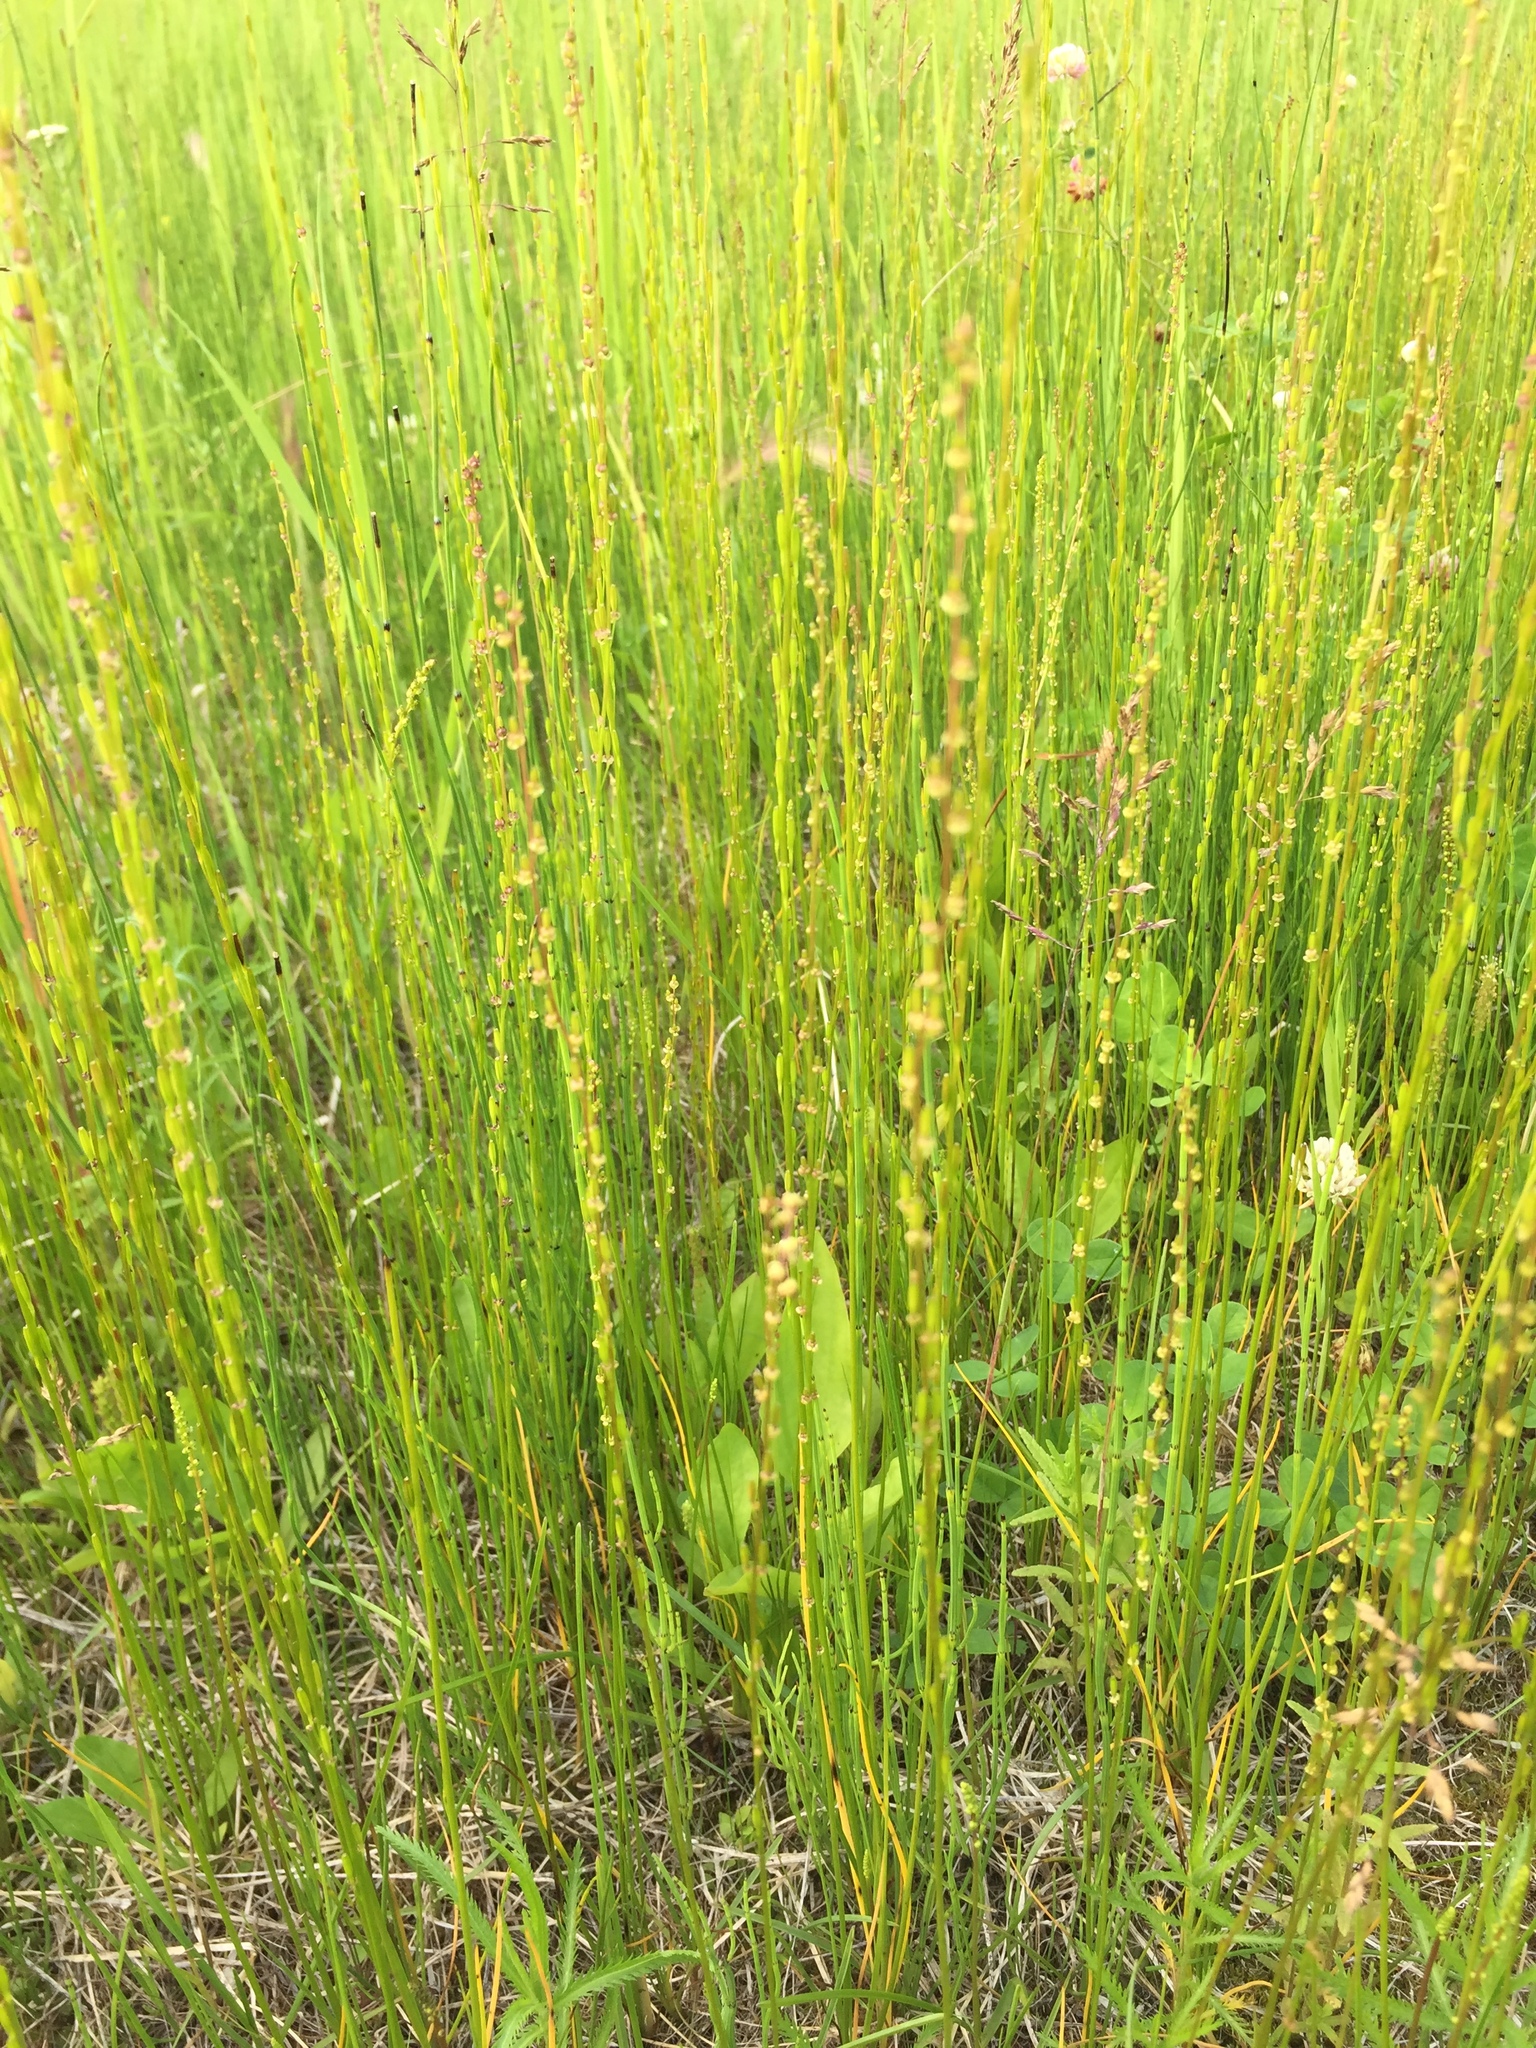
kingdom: Plantae
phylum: Tracheophyta
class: Liliopsida
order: Alismatales
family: Juncaginaceae
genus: Triglochin
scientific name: Triglochin palustris
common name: Marsh arrowgrass
